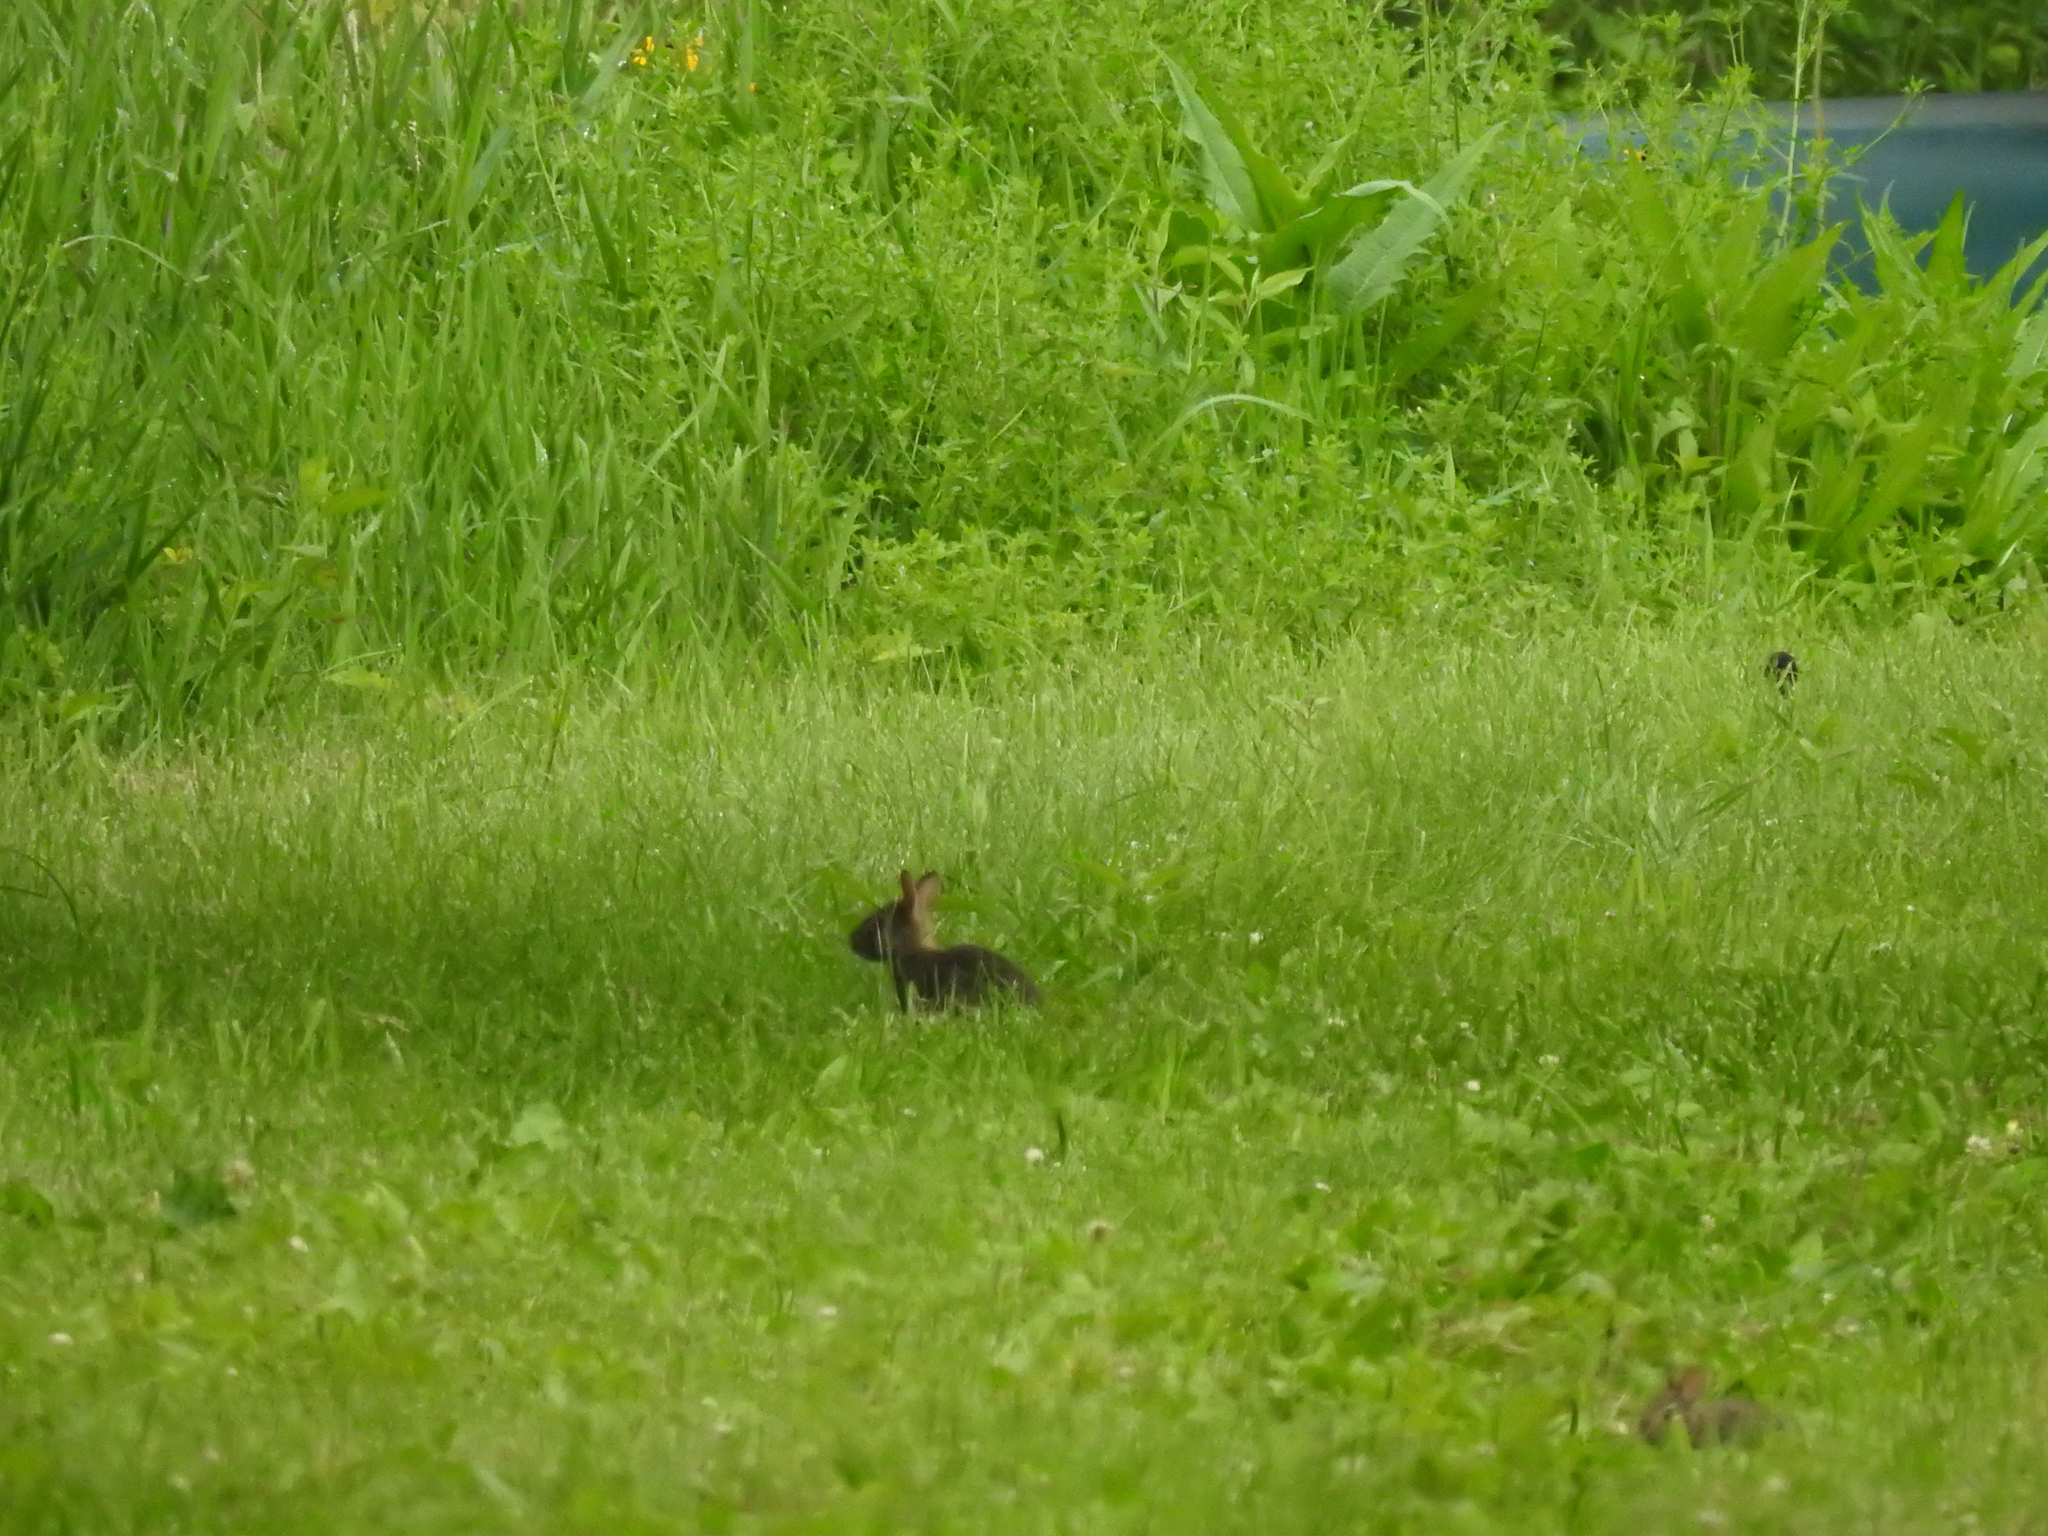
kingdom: Animalia
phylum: Chordata
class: Mammalia
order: Lagomorpha
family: Leporidae
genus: Sylvilagus
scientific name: Sylvilagus floridanus
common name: Eastern cottontail
